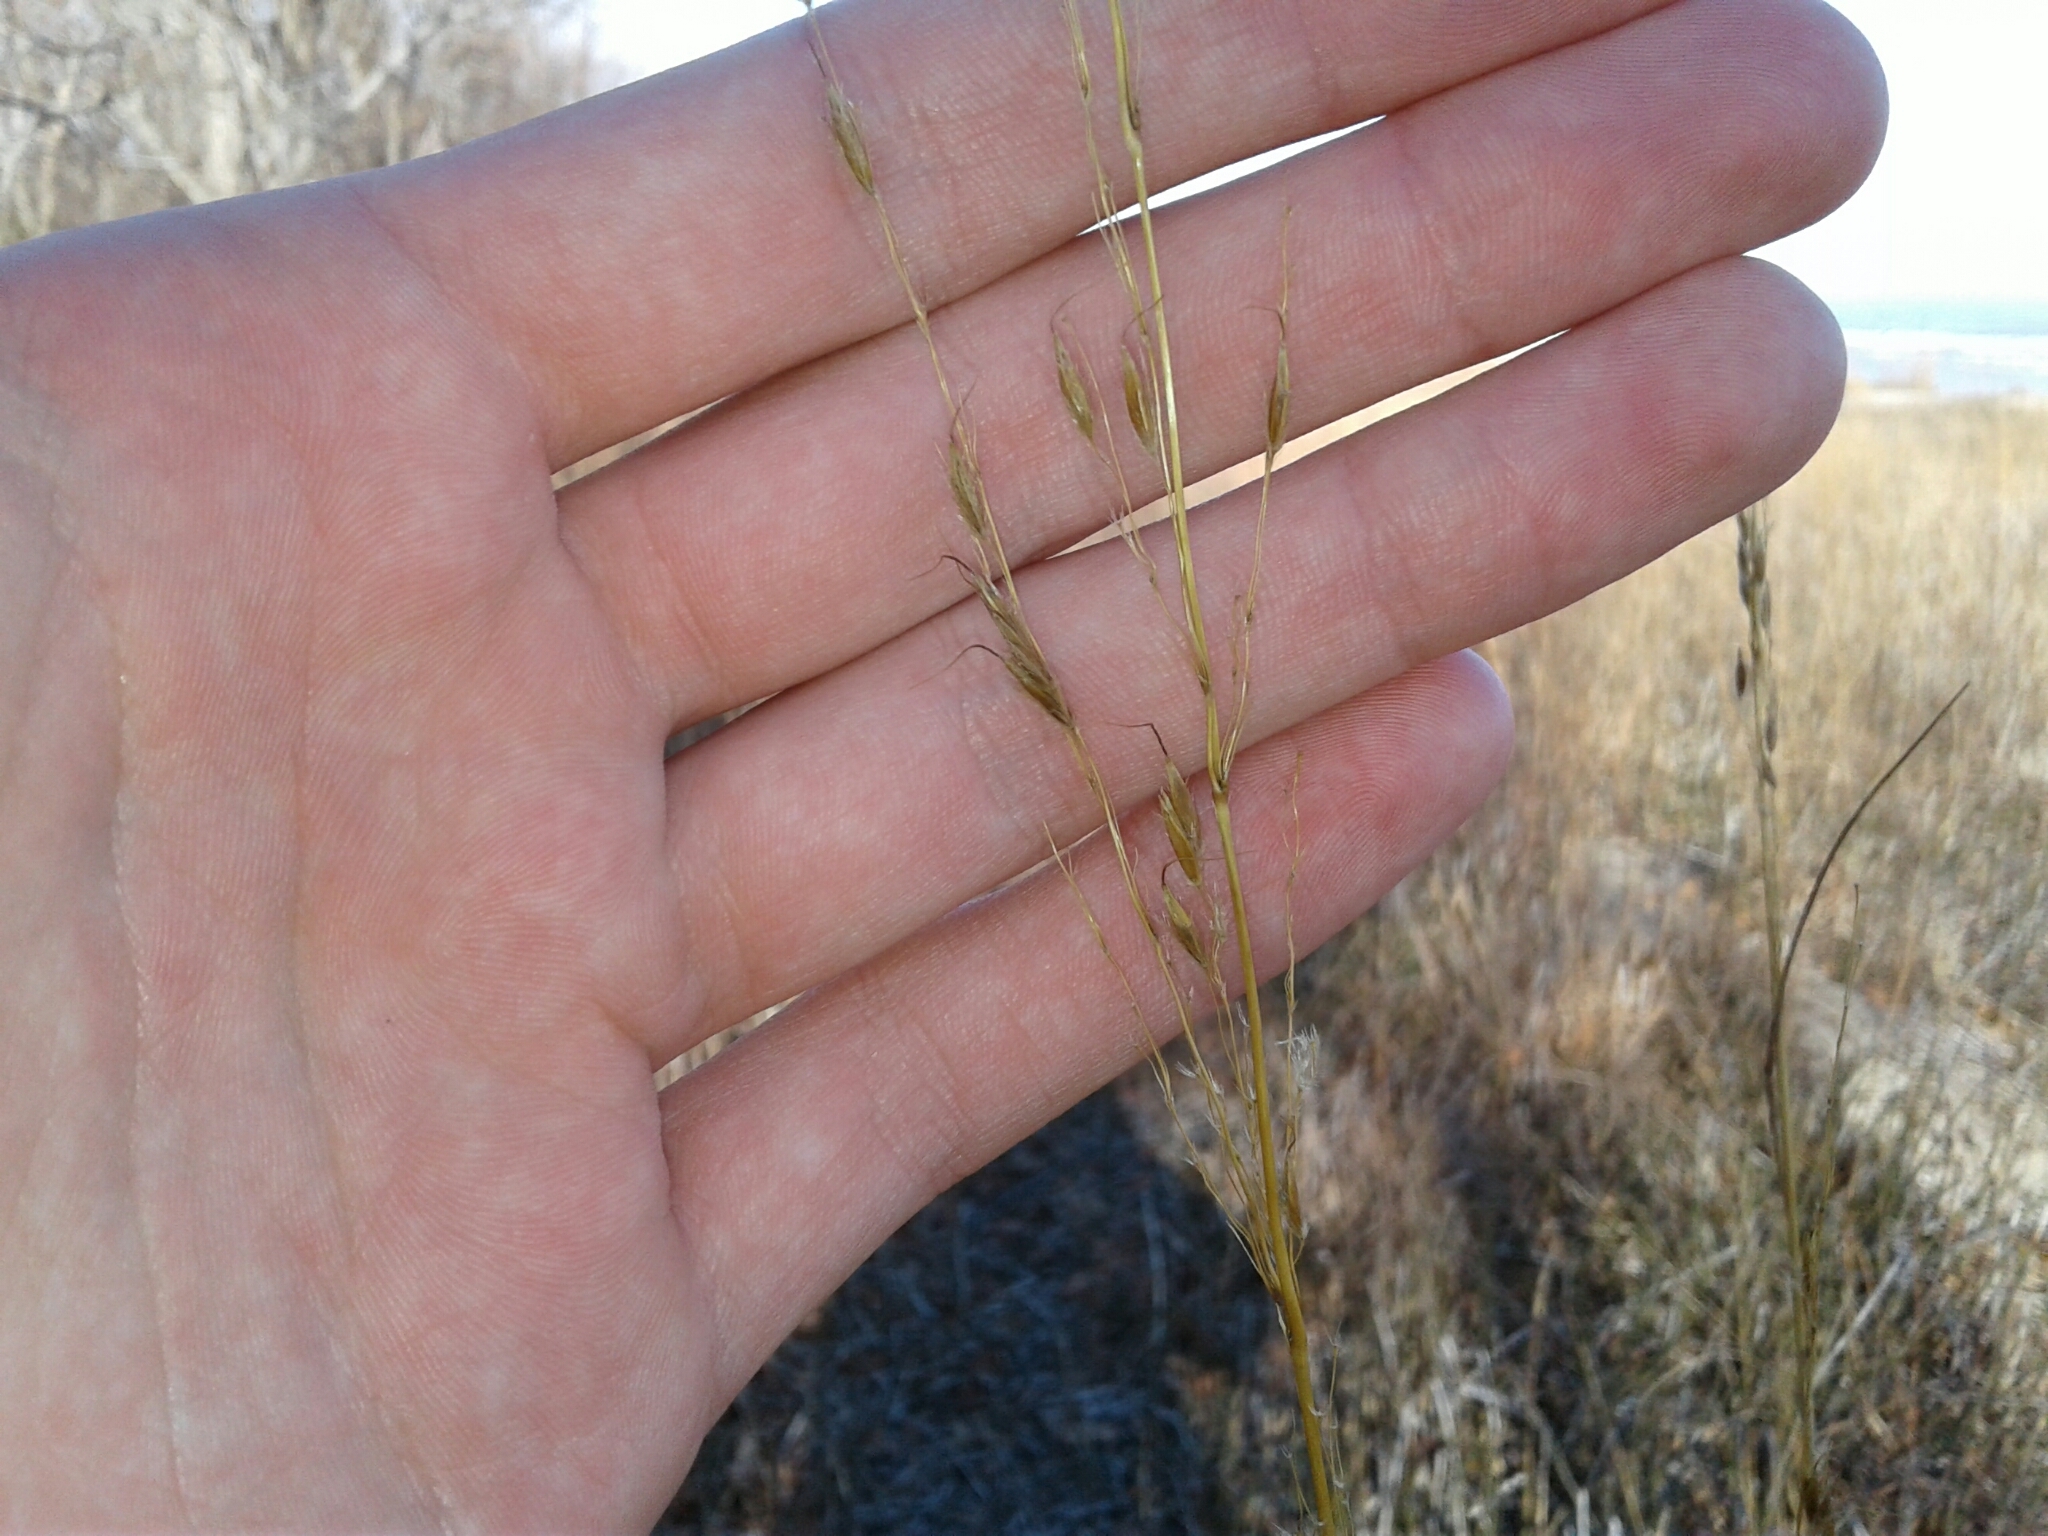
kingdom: Plantae
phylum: Tracheophyta
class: Liliopsida
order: Poales
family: Poaceae
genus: Sorghastrum
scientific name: Sorghastrum nutans
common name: Indian grass
